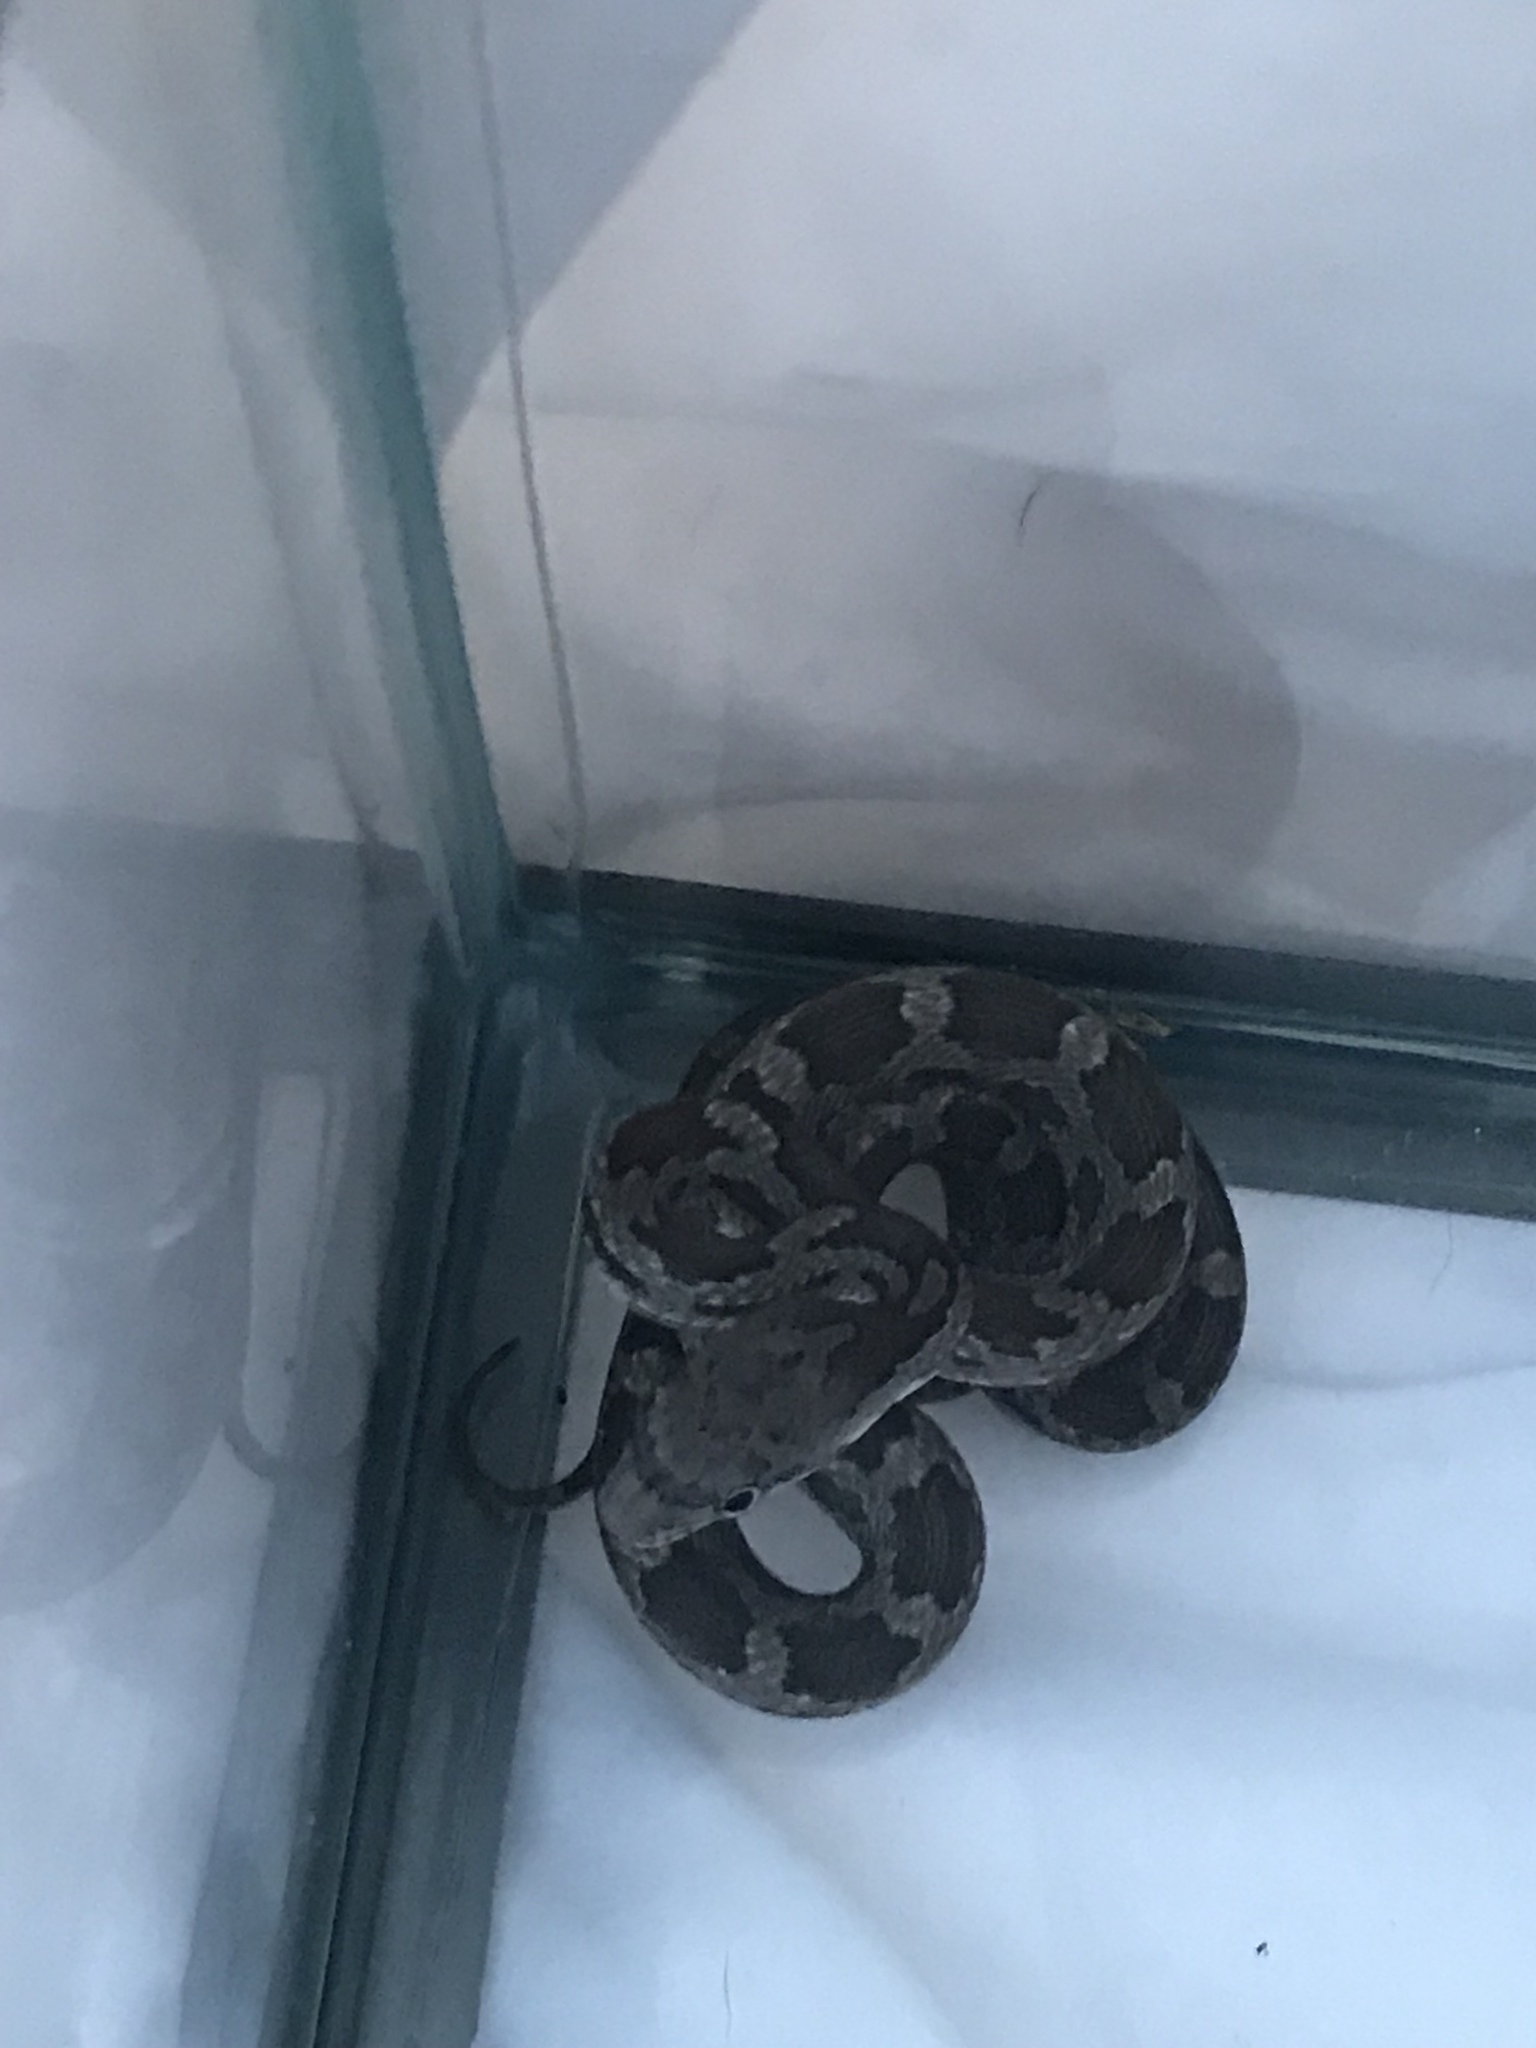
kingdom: Animalia
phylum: Chordata
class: Squamata
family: Colubridae
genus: Pantherophis
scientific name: Pantherophis alleghaniensis
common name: Eastern rat snake
